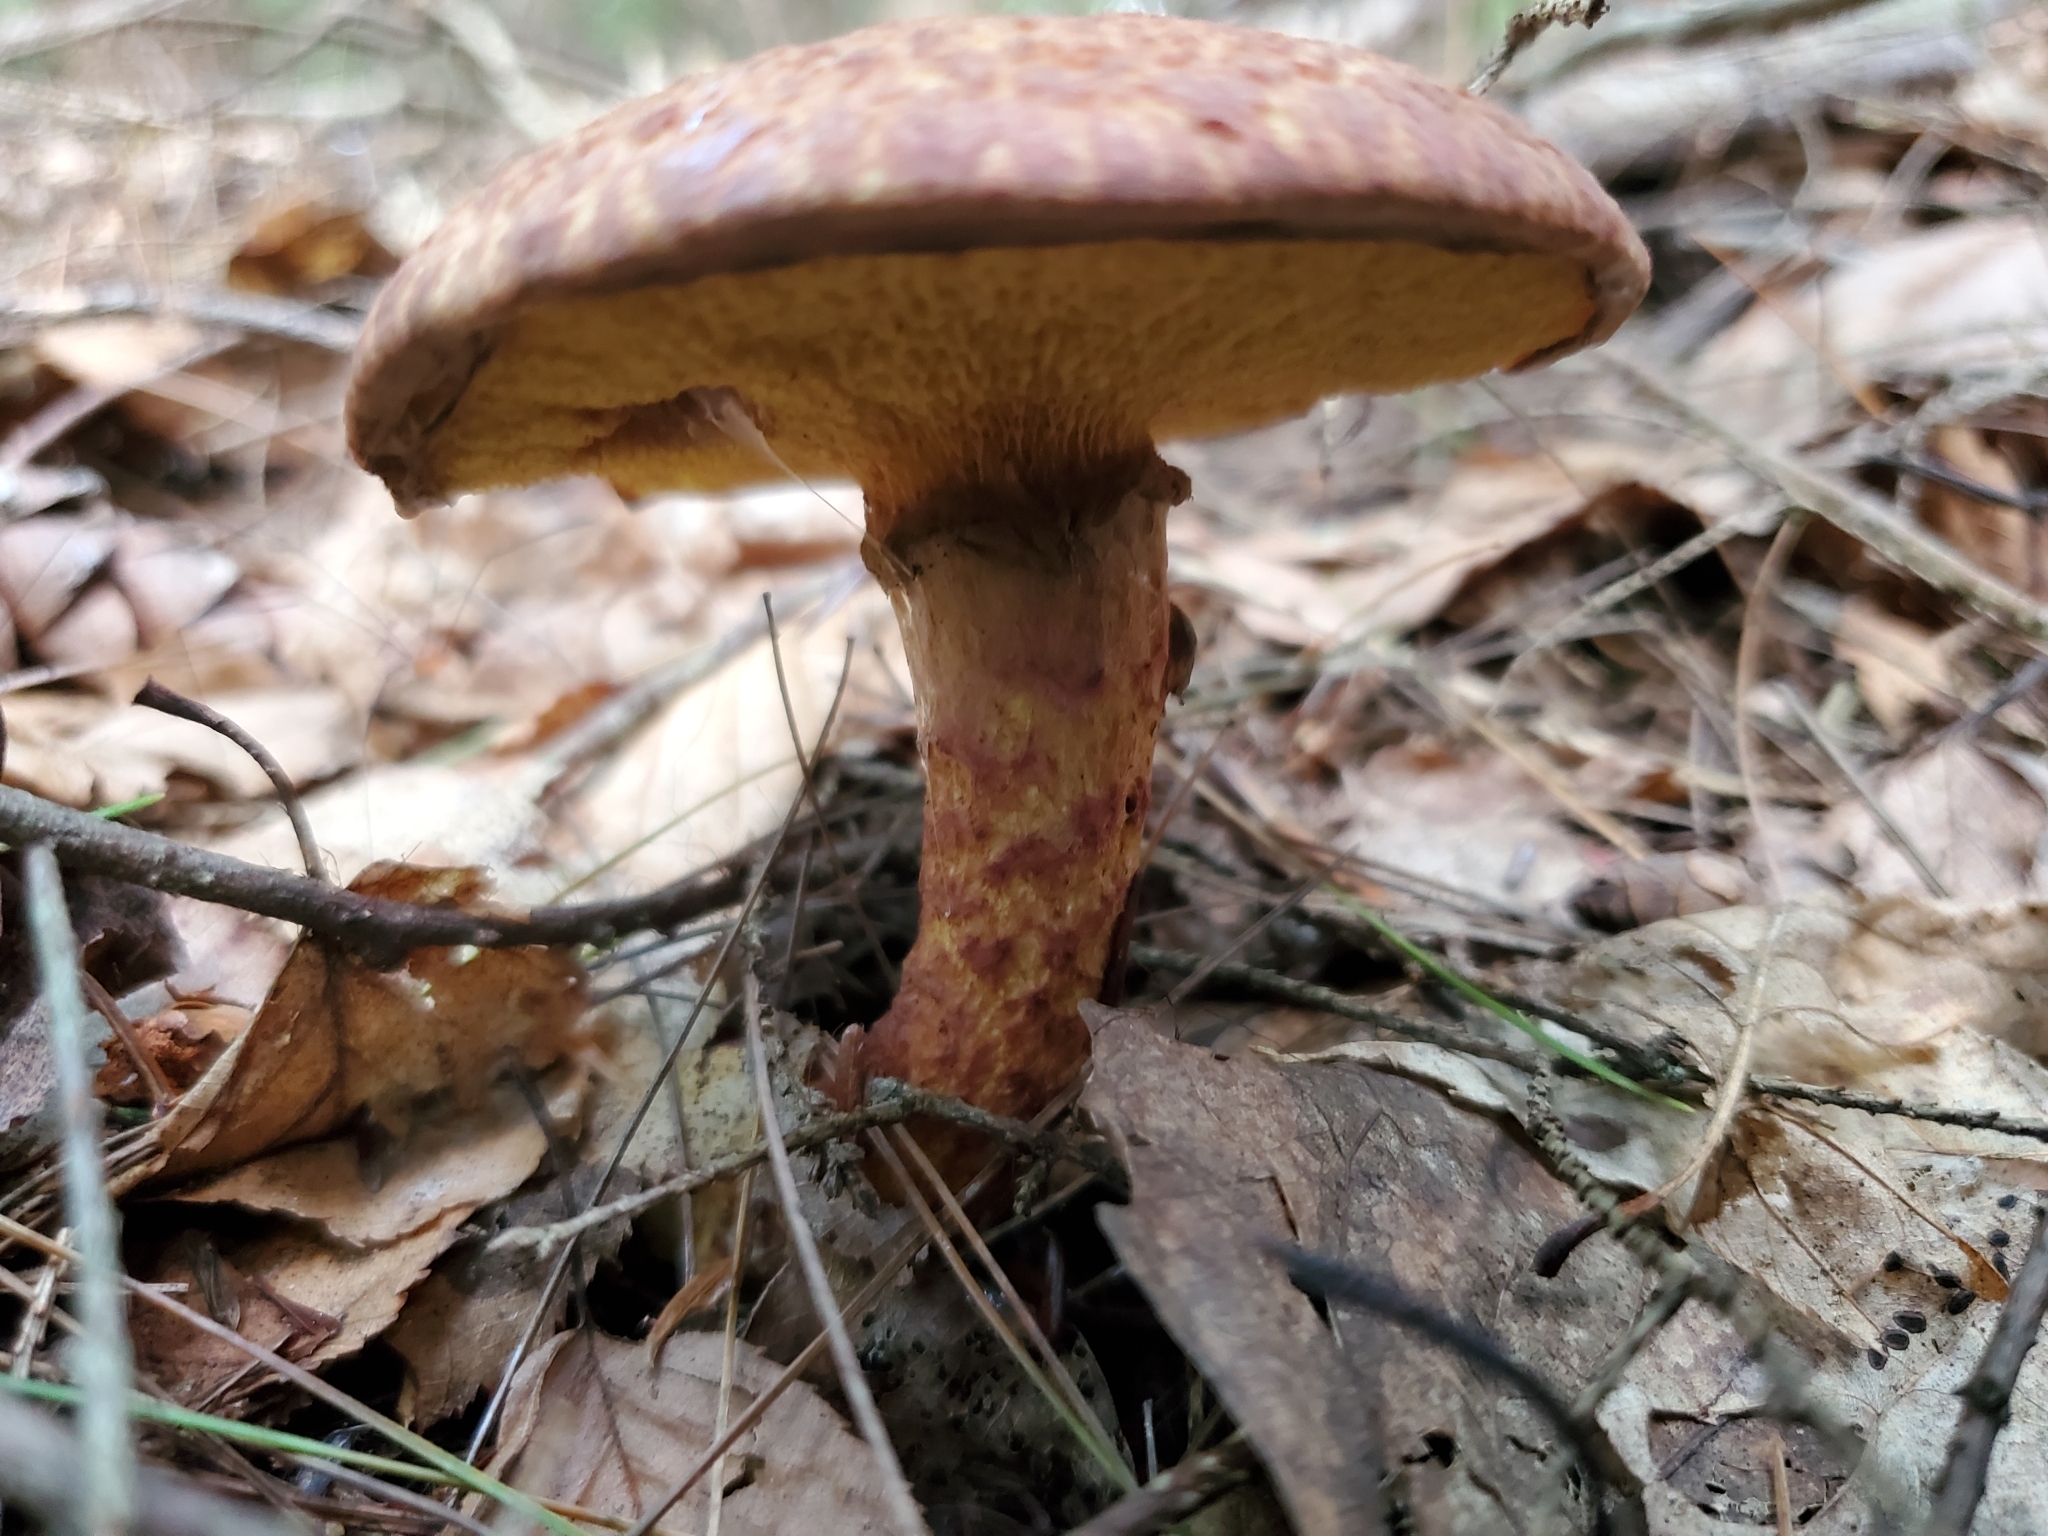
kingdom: Fungi
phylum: Basidiomycota
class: Agaricomycetes
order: Boletales
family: Suillaceae
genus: Suillus
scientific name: Suillus spraguei
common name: Painted suillus
